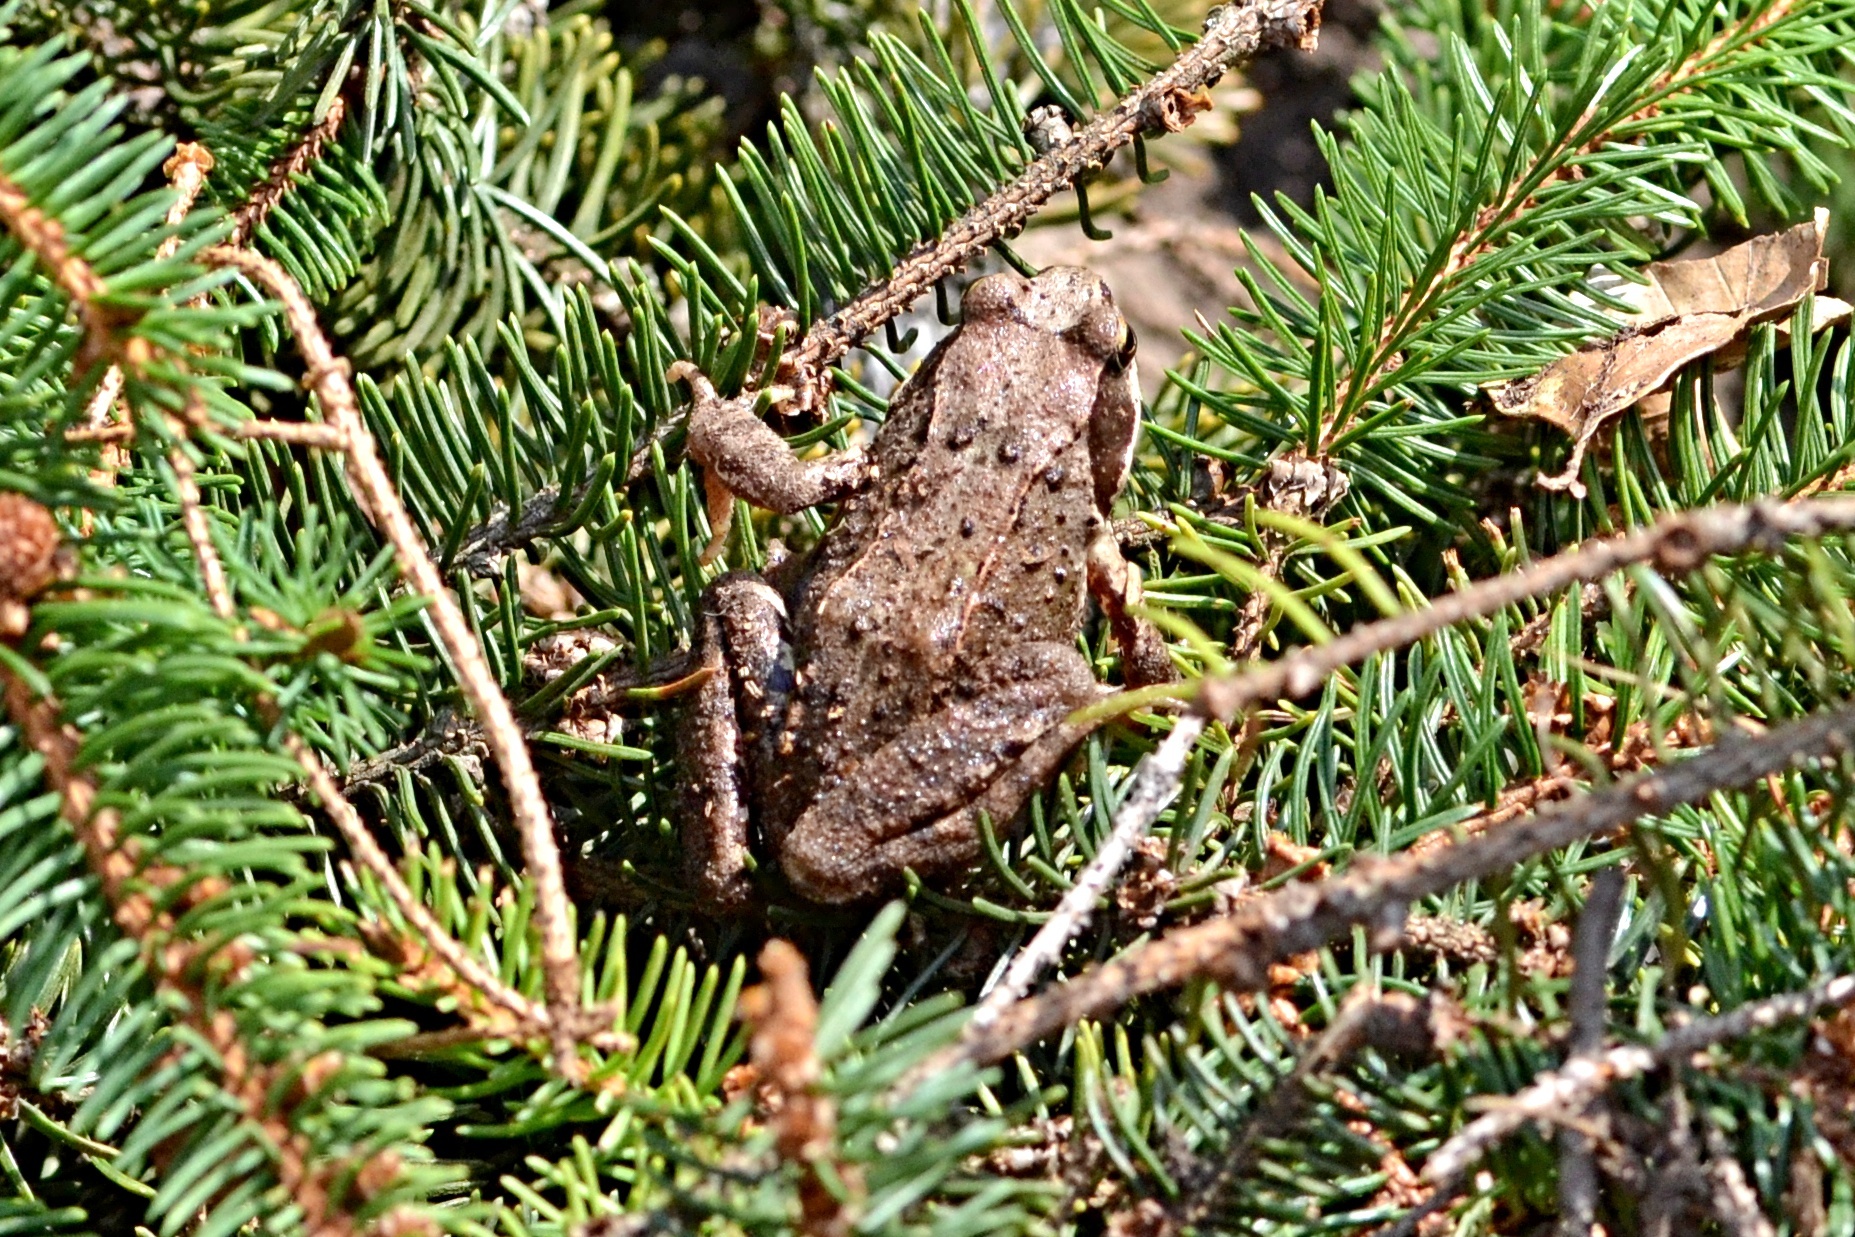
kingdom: Animalia
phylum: Chordata
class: Amphibia
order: Anura
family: Ranidae
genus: Rana
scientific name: Rana temporaria
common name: Common frog
